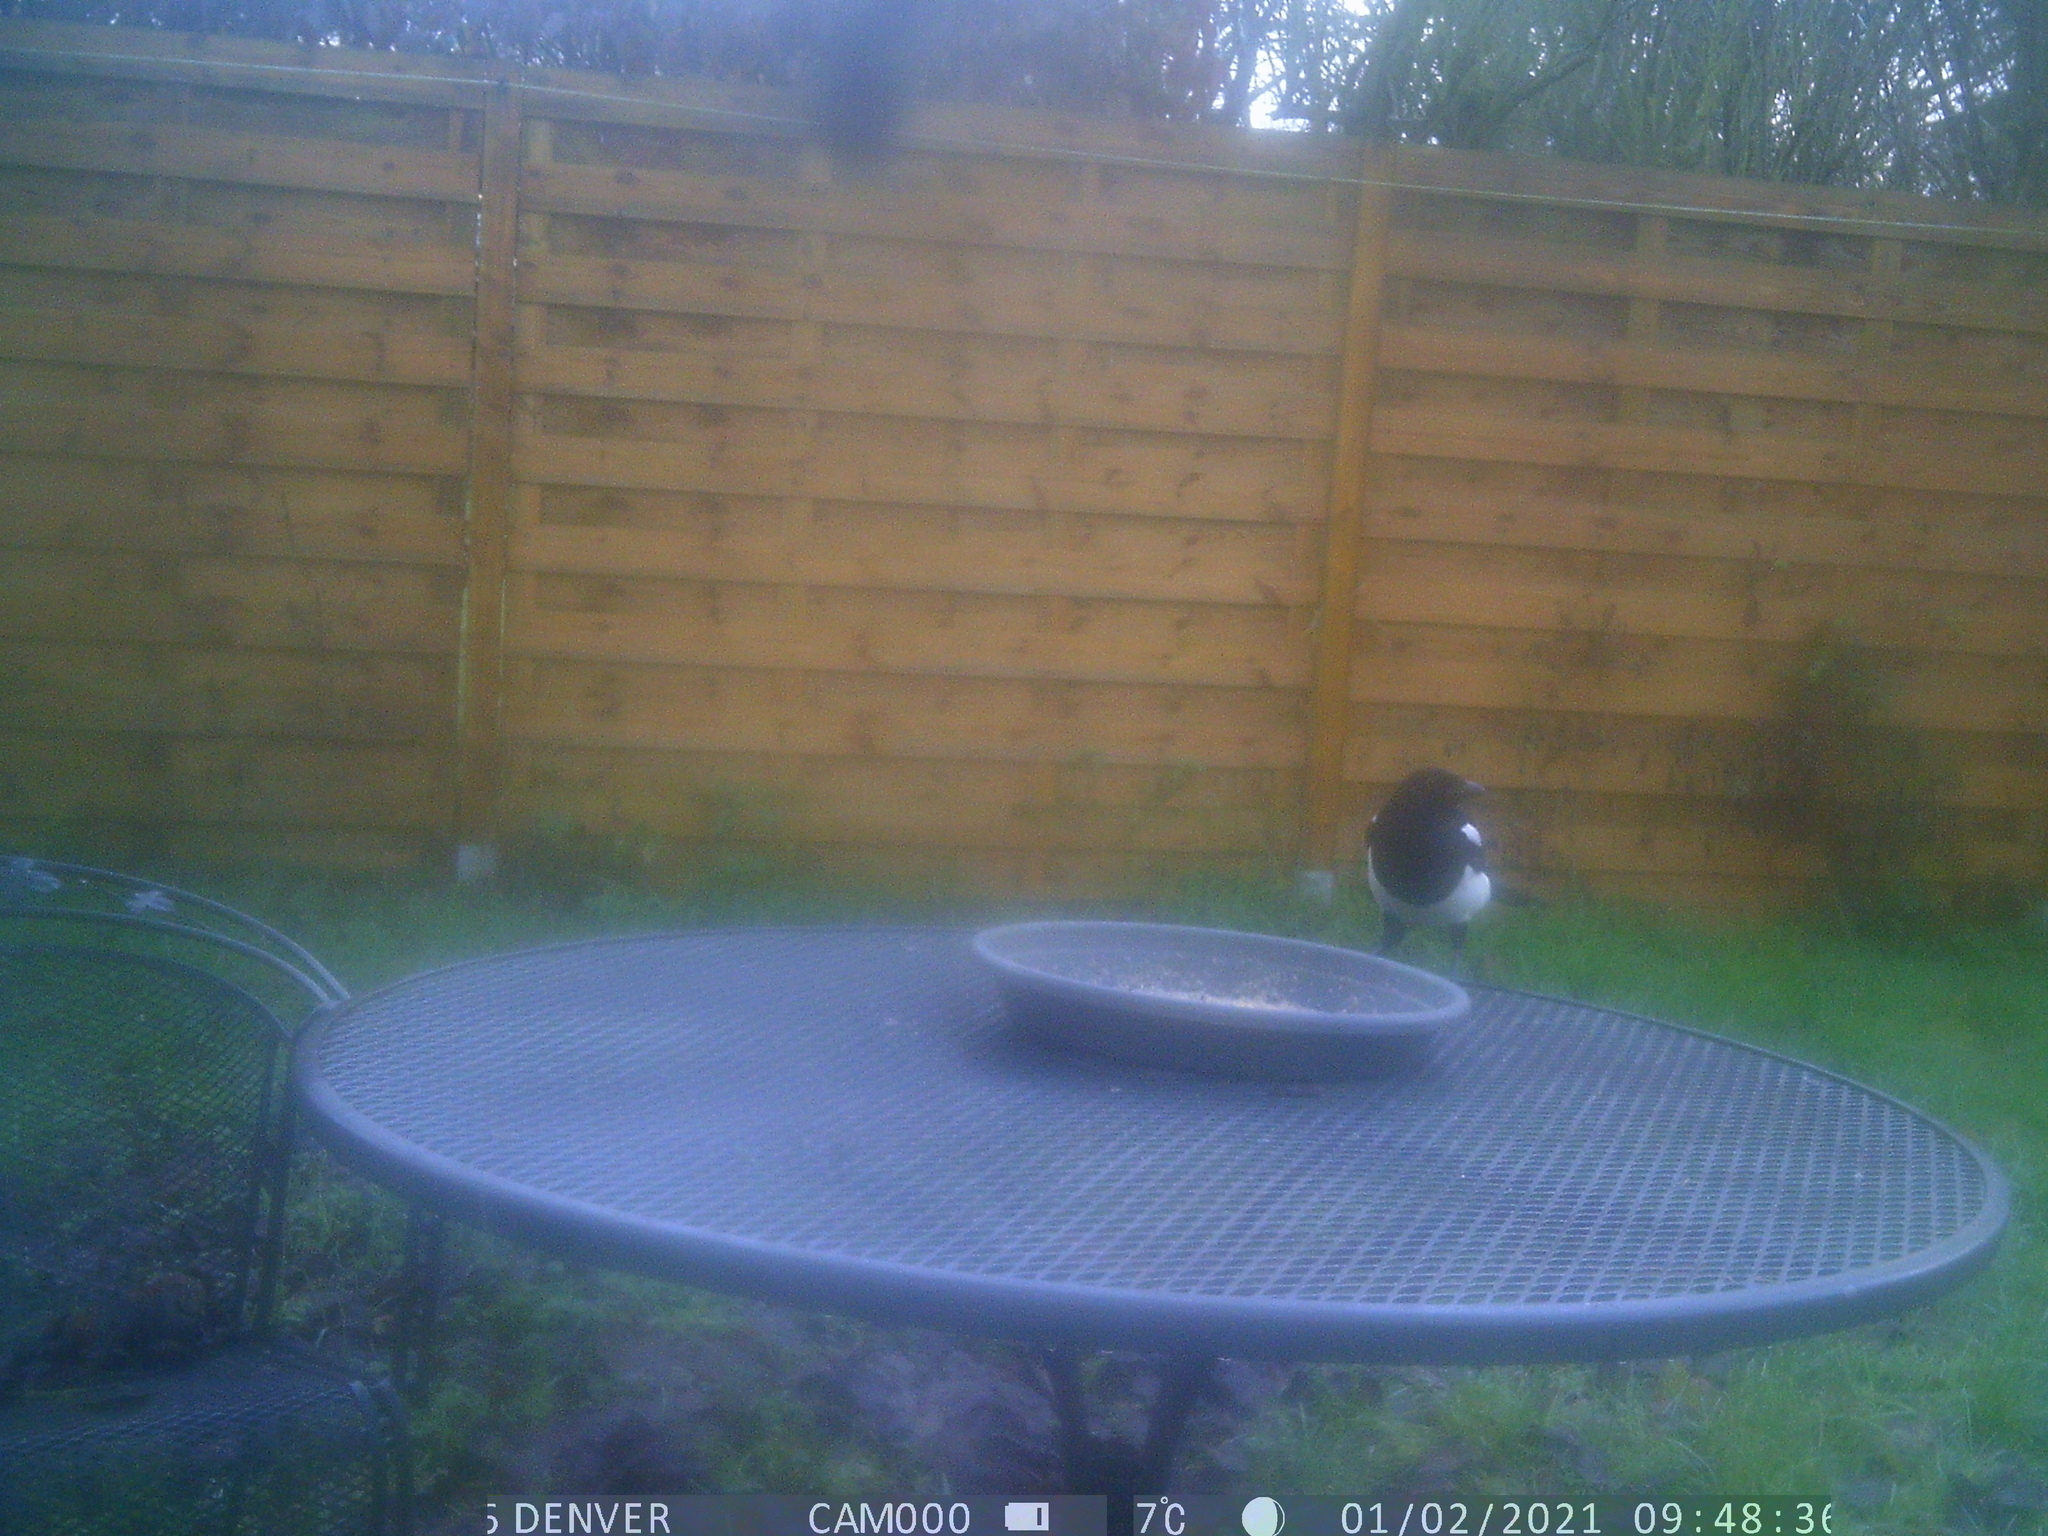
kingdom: Animalia
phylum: Chordata
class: Aves
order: Passeriformes
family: Corvidae
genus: Pica
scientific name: Pica pica
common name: Eurasian magpie
